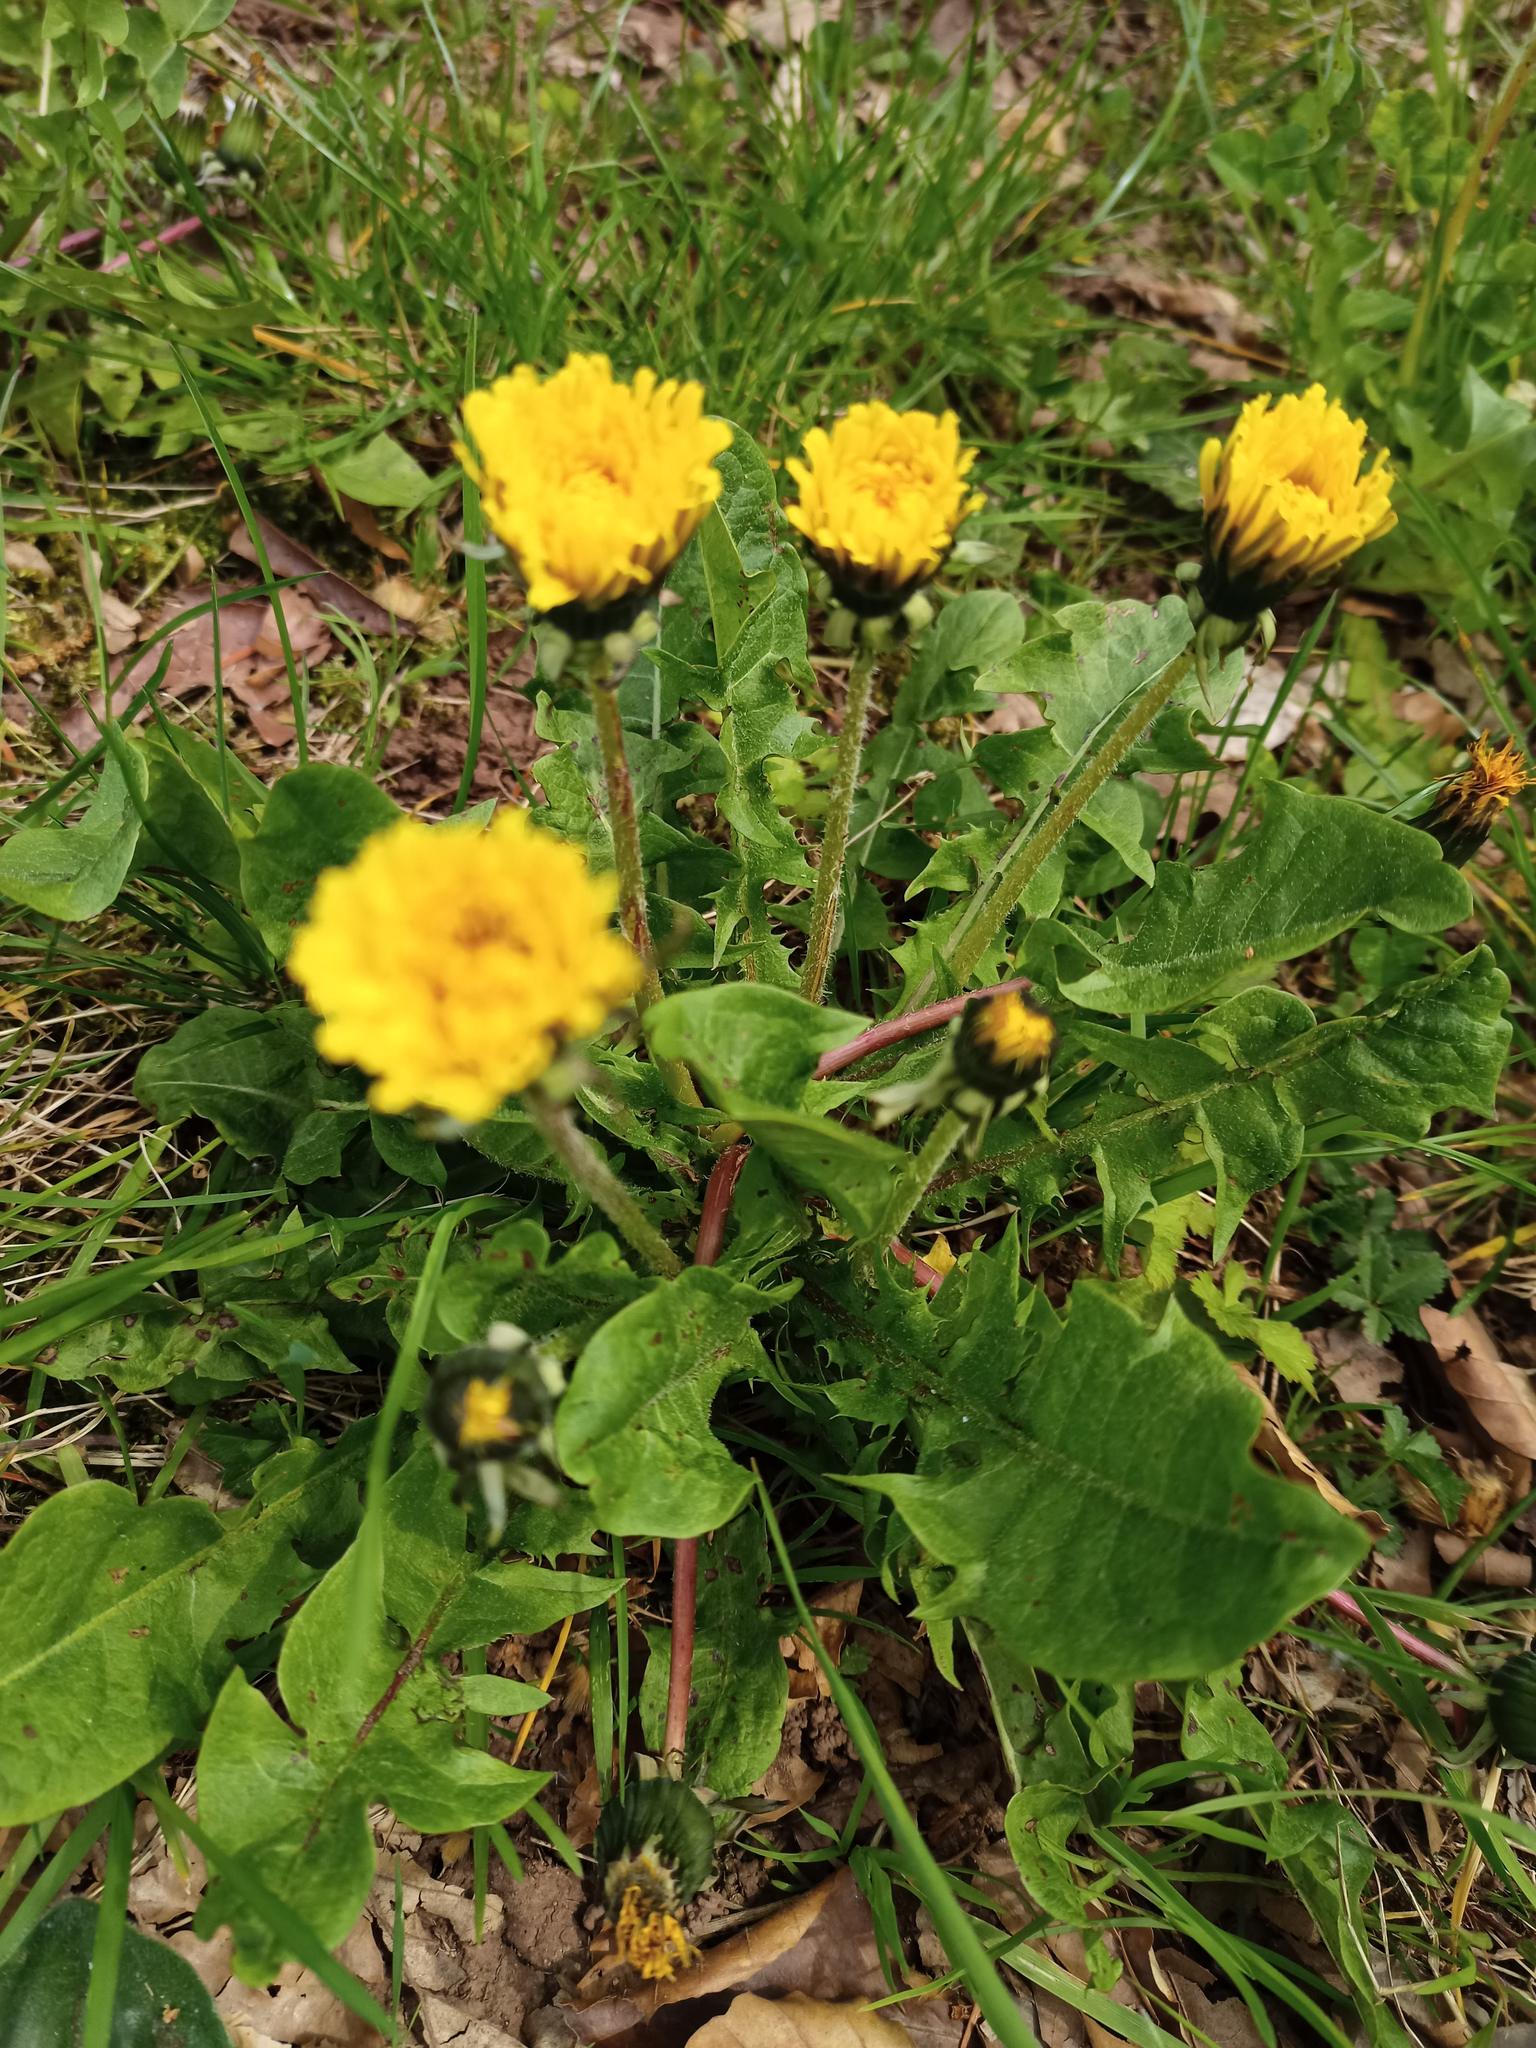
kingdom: Plantae
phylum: Tracheophyta
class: Magnoliopsida
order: Asterales
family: Asteraceae
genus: Taraxacum
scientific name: Taraxacum officinale
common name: Common dandelion
